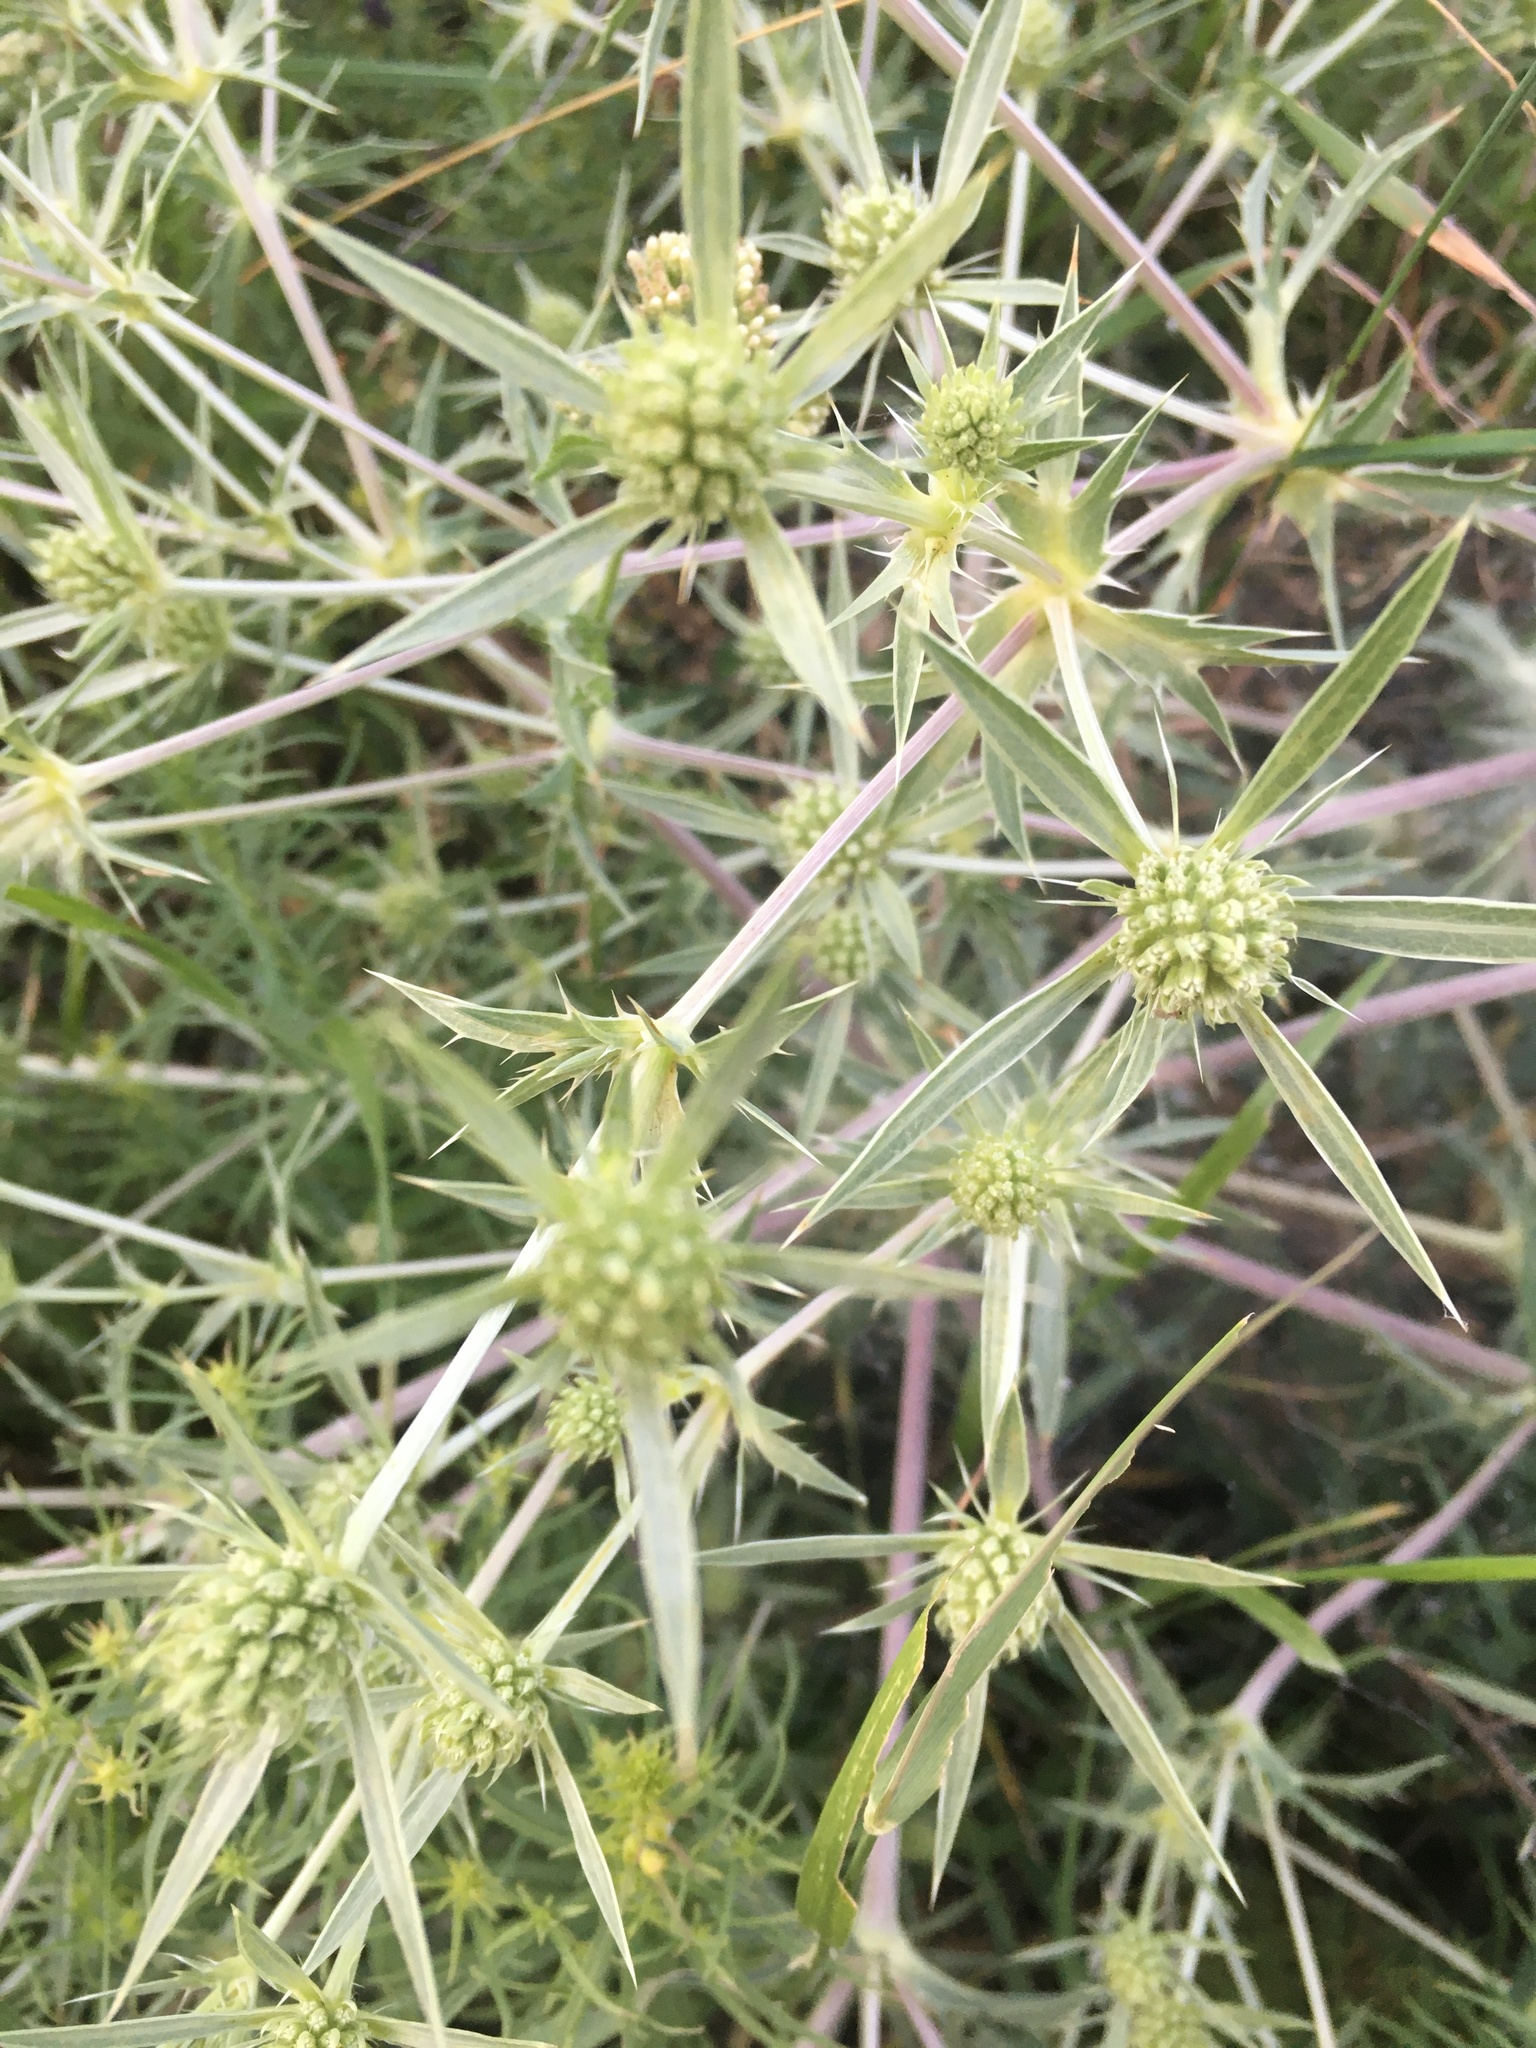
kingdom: Plantae
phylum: Tracheophyta
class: Magnoliopsida
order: Apiales
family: Apiaceae
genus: Eryngium
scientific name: Eryngium campestre
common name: Field eryngo
